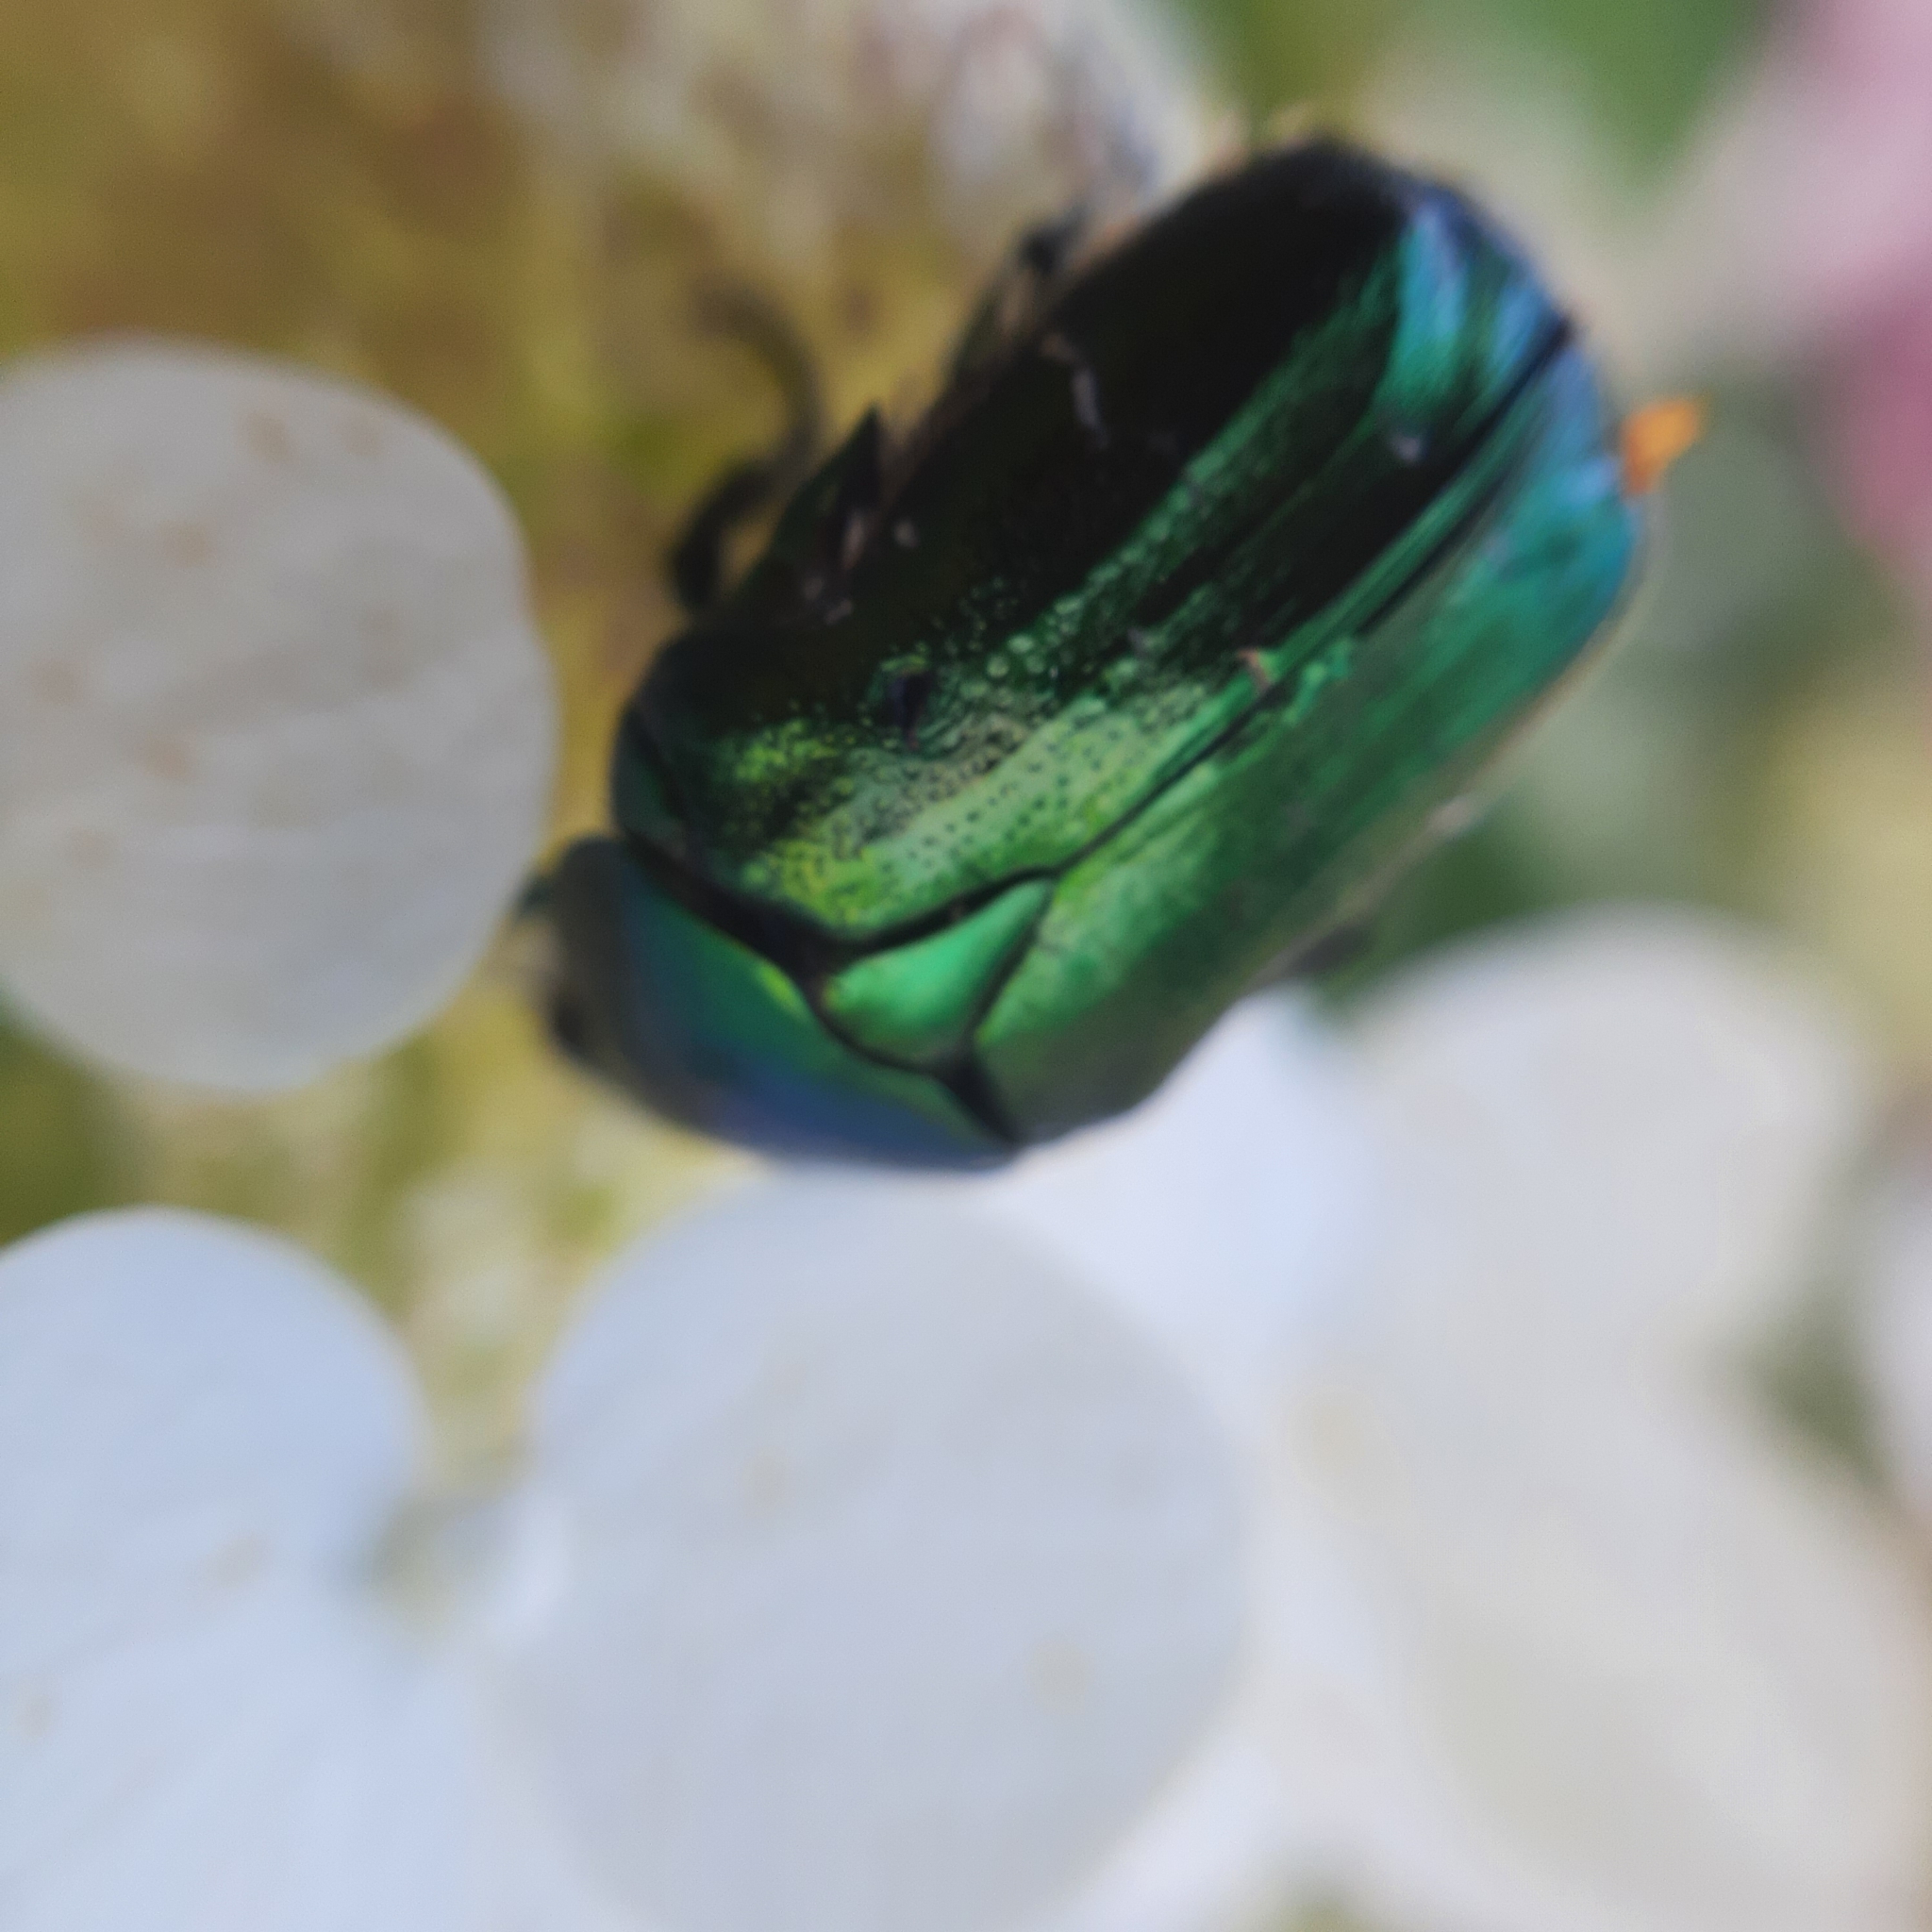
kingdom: Animalia
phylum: Arthropoda
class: Insecta
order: Coleoptera
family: Scarabaeidae
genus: Cetonia
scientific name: Cetonia aurata
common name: Rose chafer
